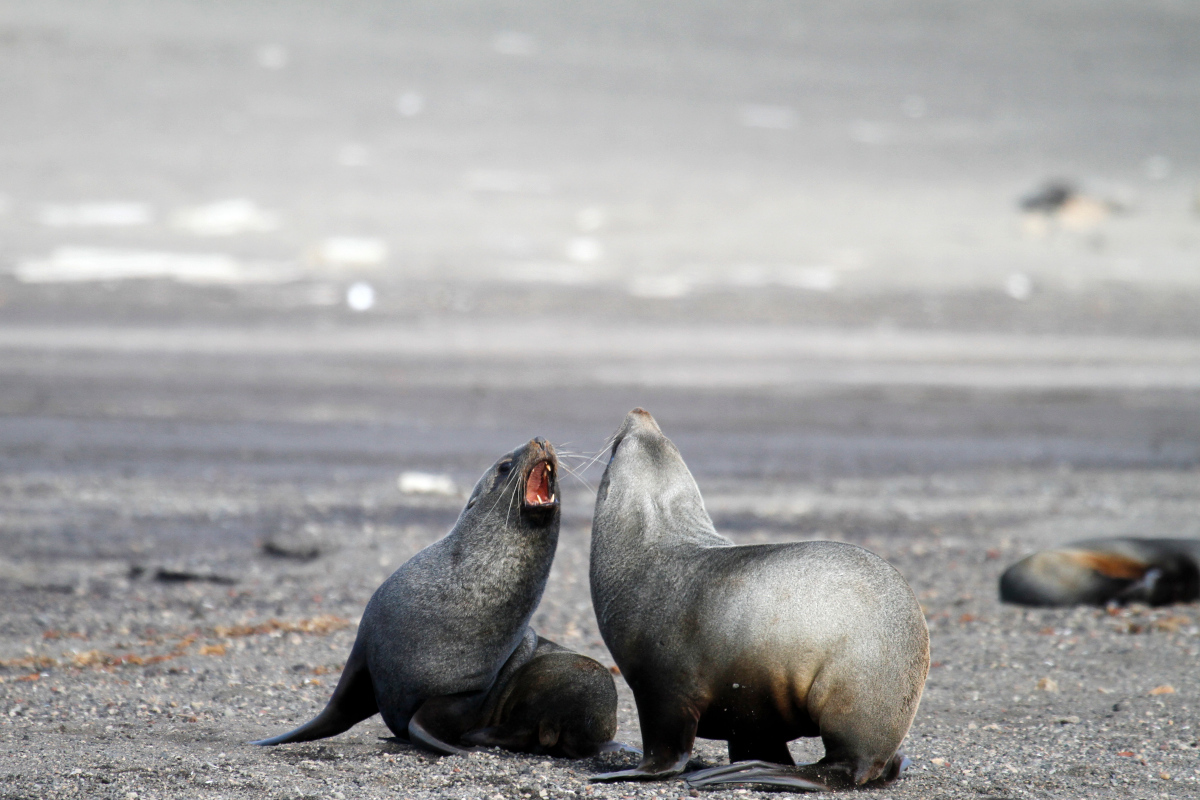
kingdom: Animalia
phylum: Chordata
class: Mammalia
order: Carnivora
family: Otariidae
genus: Arctocephalus
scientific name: Arctocephalus gazella
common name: Antarctic fur seal
